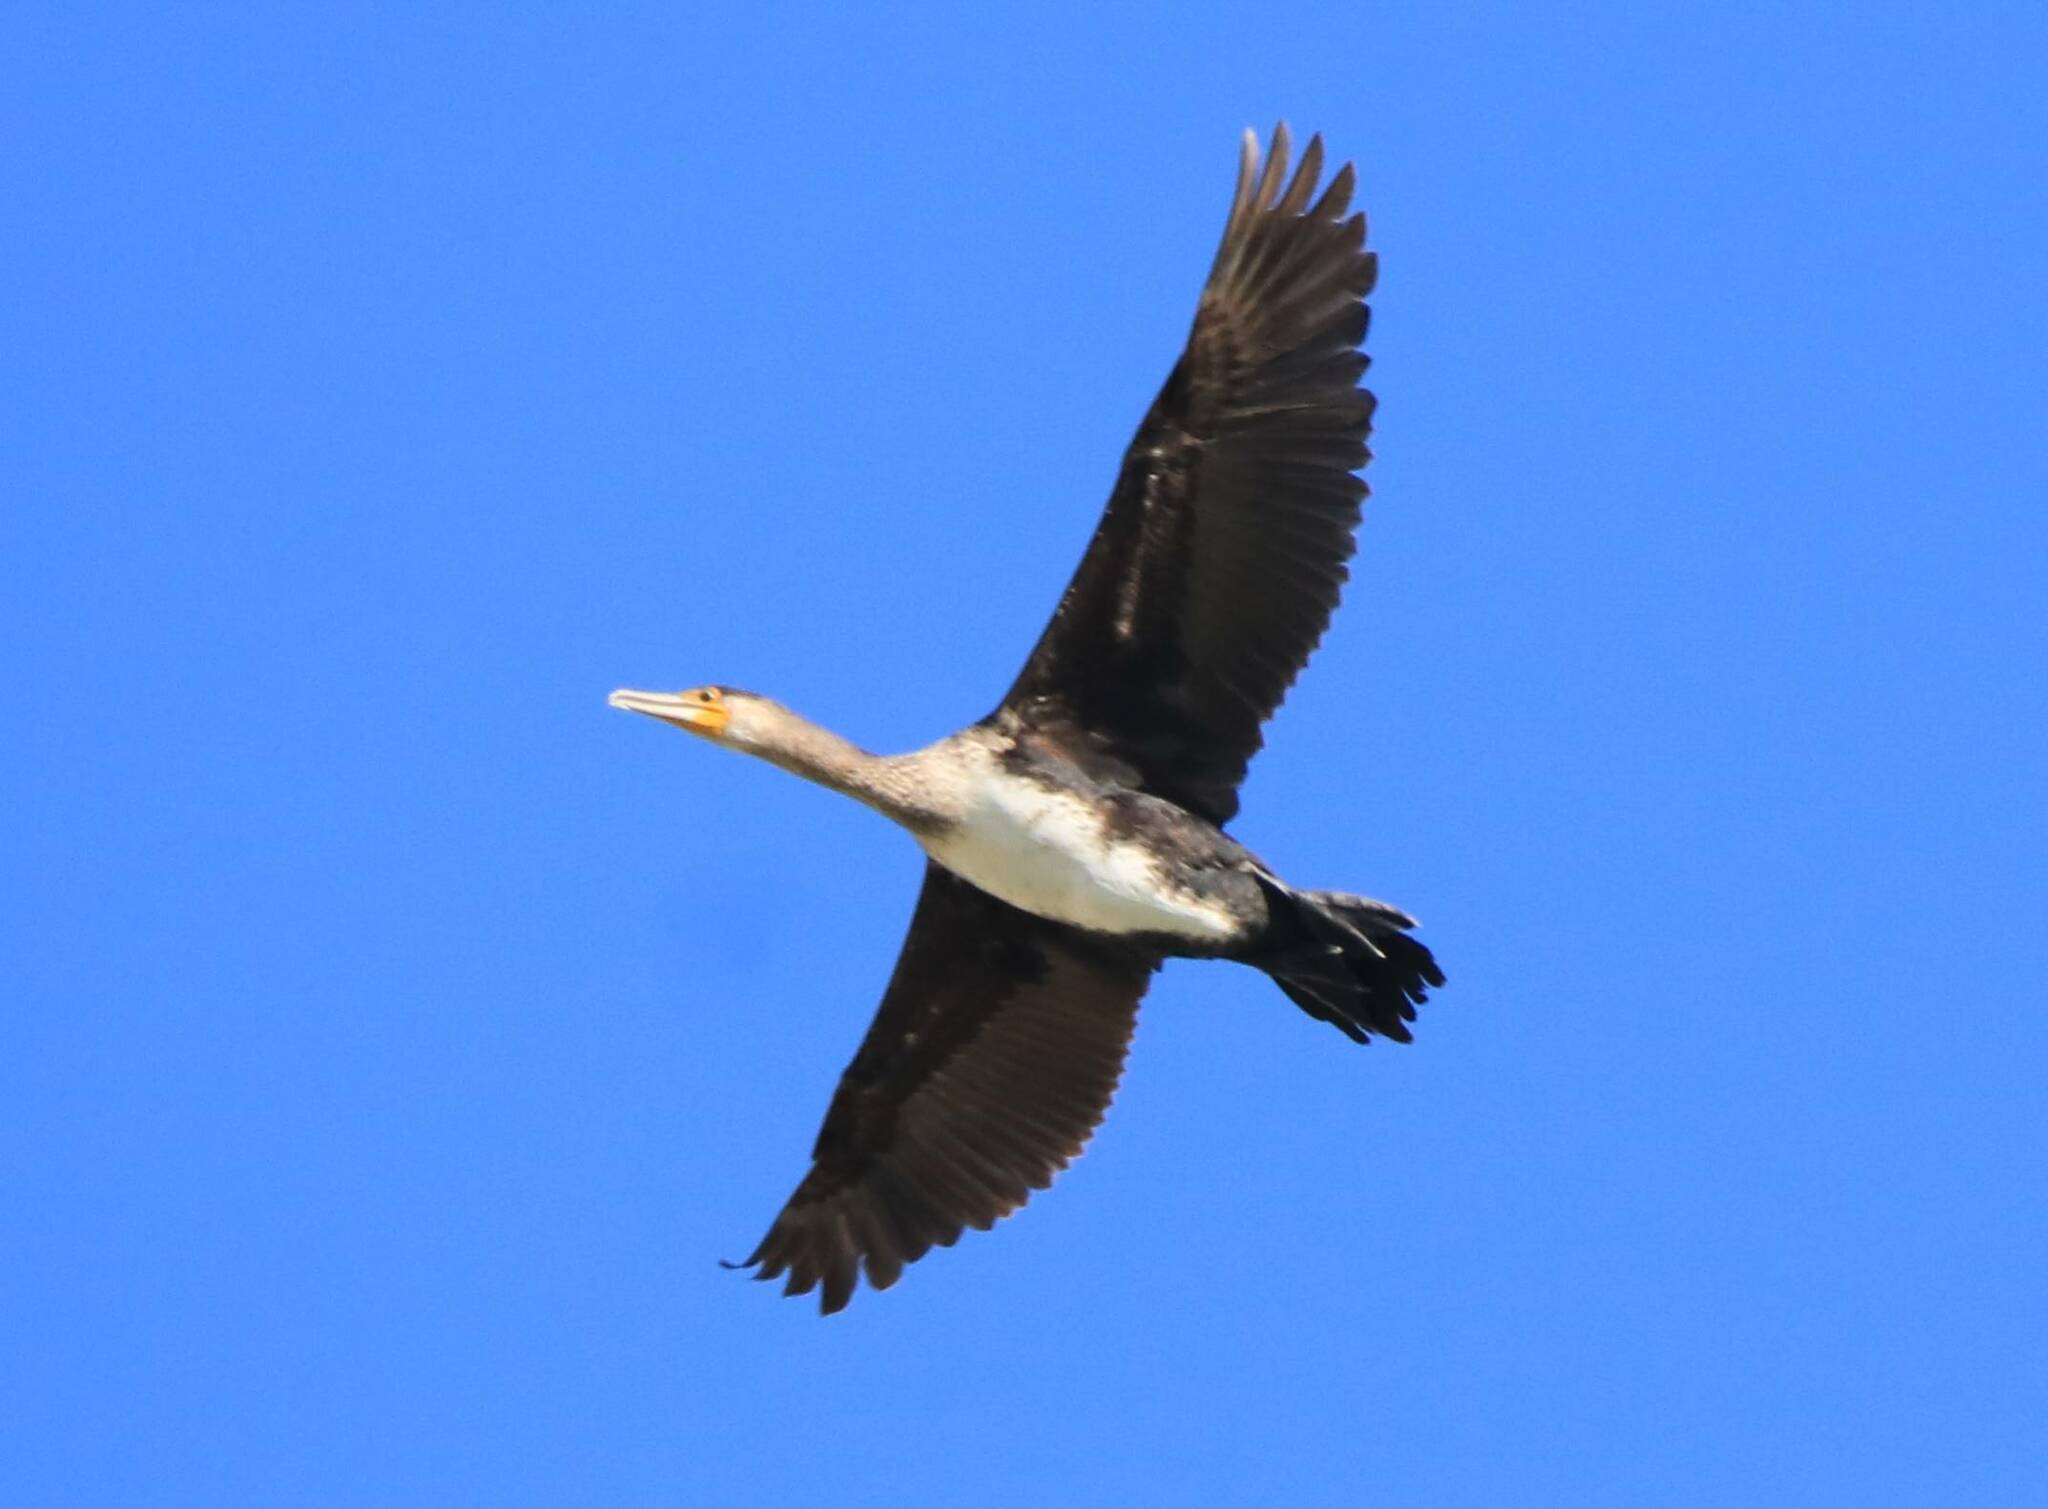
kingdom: Animalia
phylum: Chordata
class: Aves
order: Suliformes
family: Phalacrocoracidae
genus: Phalacrocorax
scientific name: Phalacrocorax carbo
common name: Great cormorant
